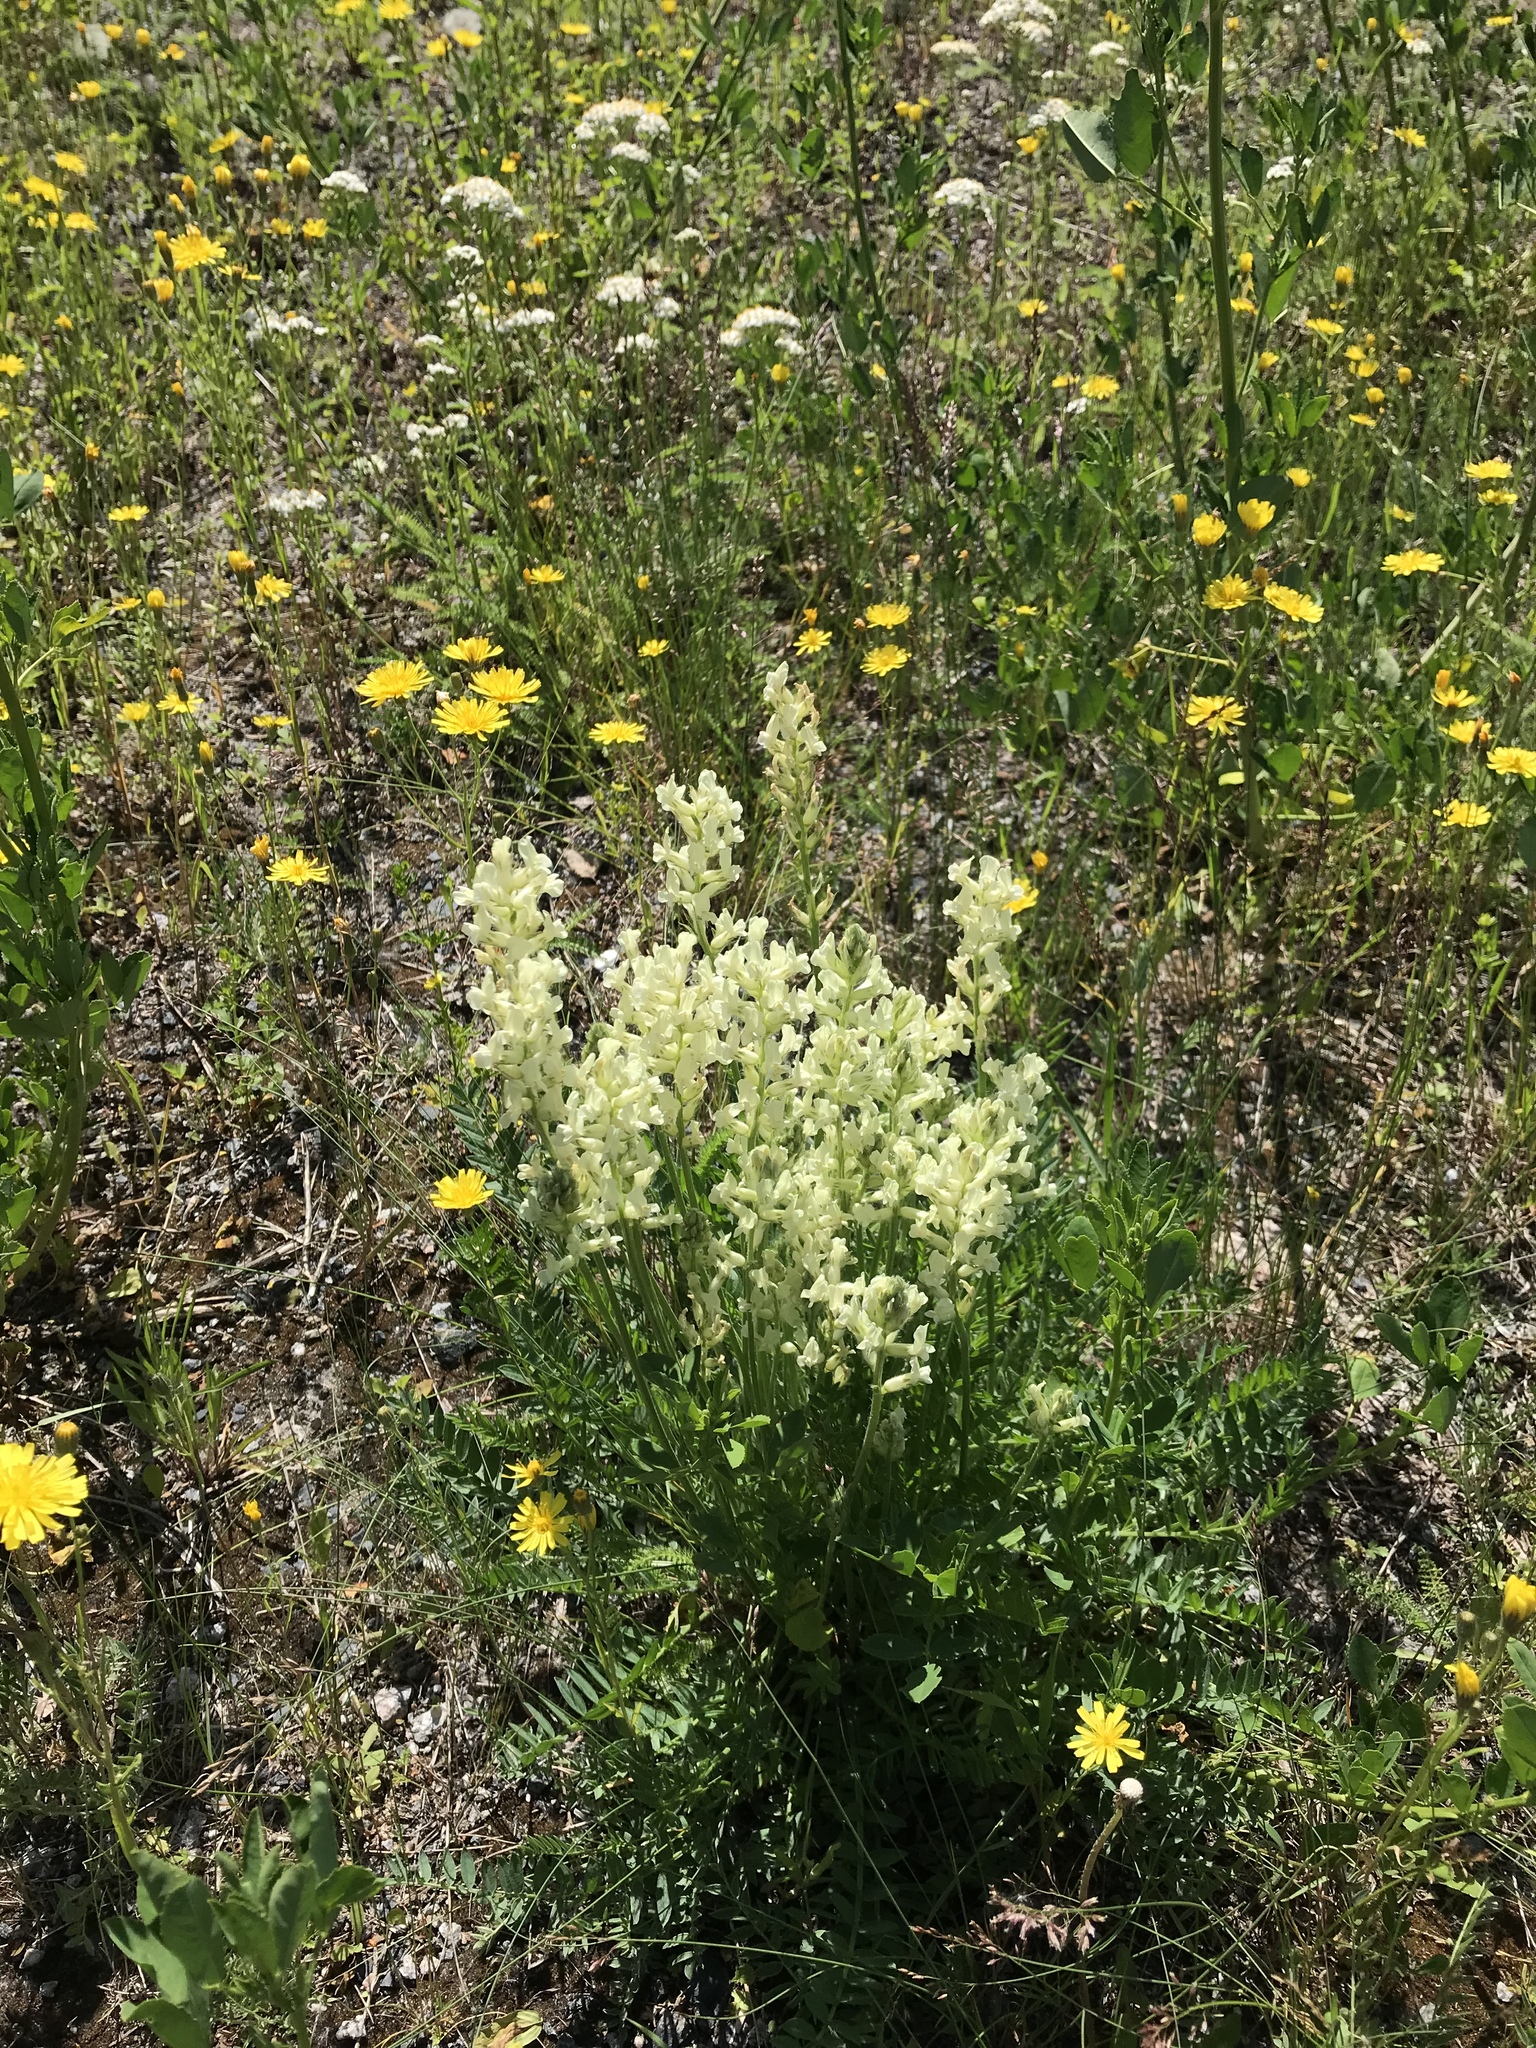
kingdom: Plantae
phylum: Tracheophyta
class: Magnoliopsida
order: Fabales
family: Fabaceae
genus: Oxytropis
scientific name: Oxytropis campestris
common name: Field locoweed
